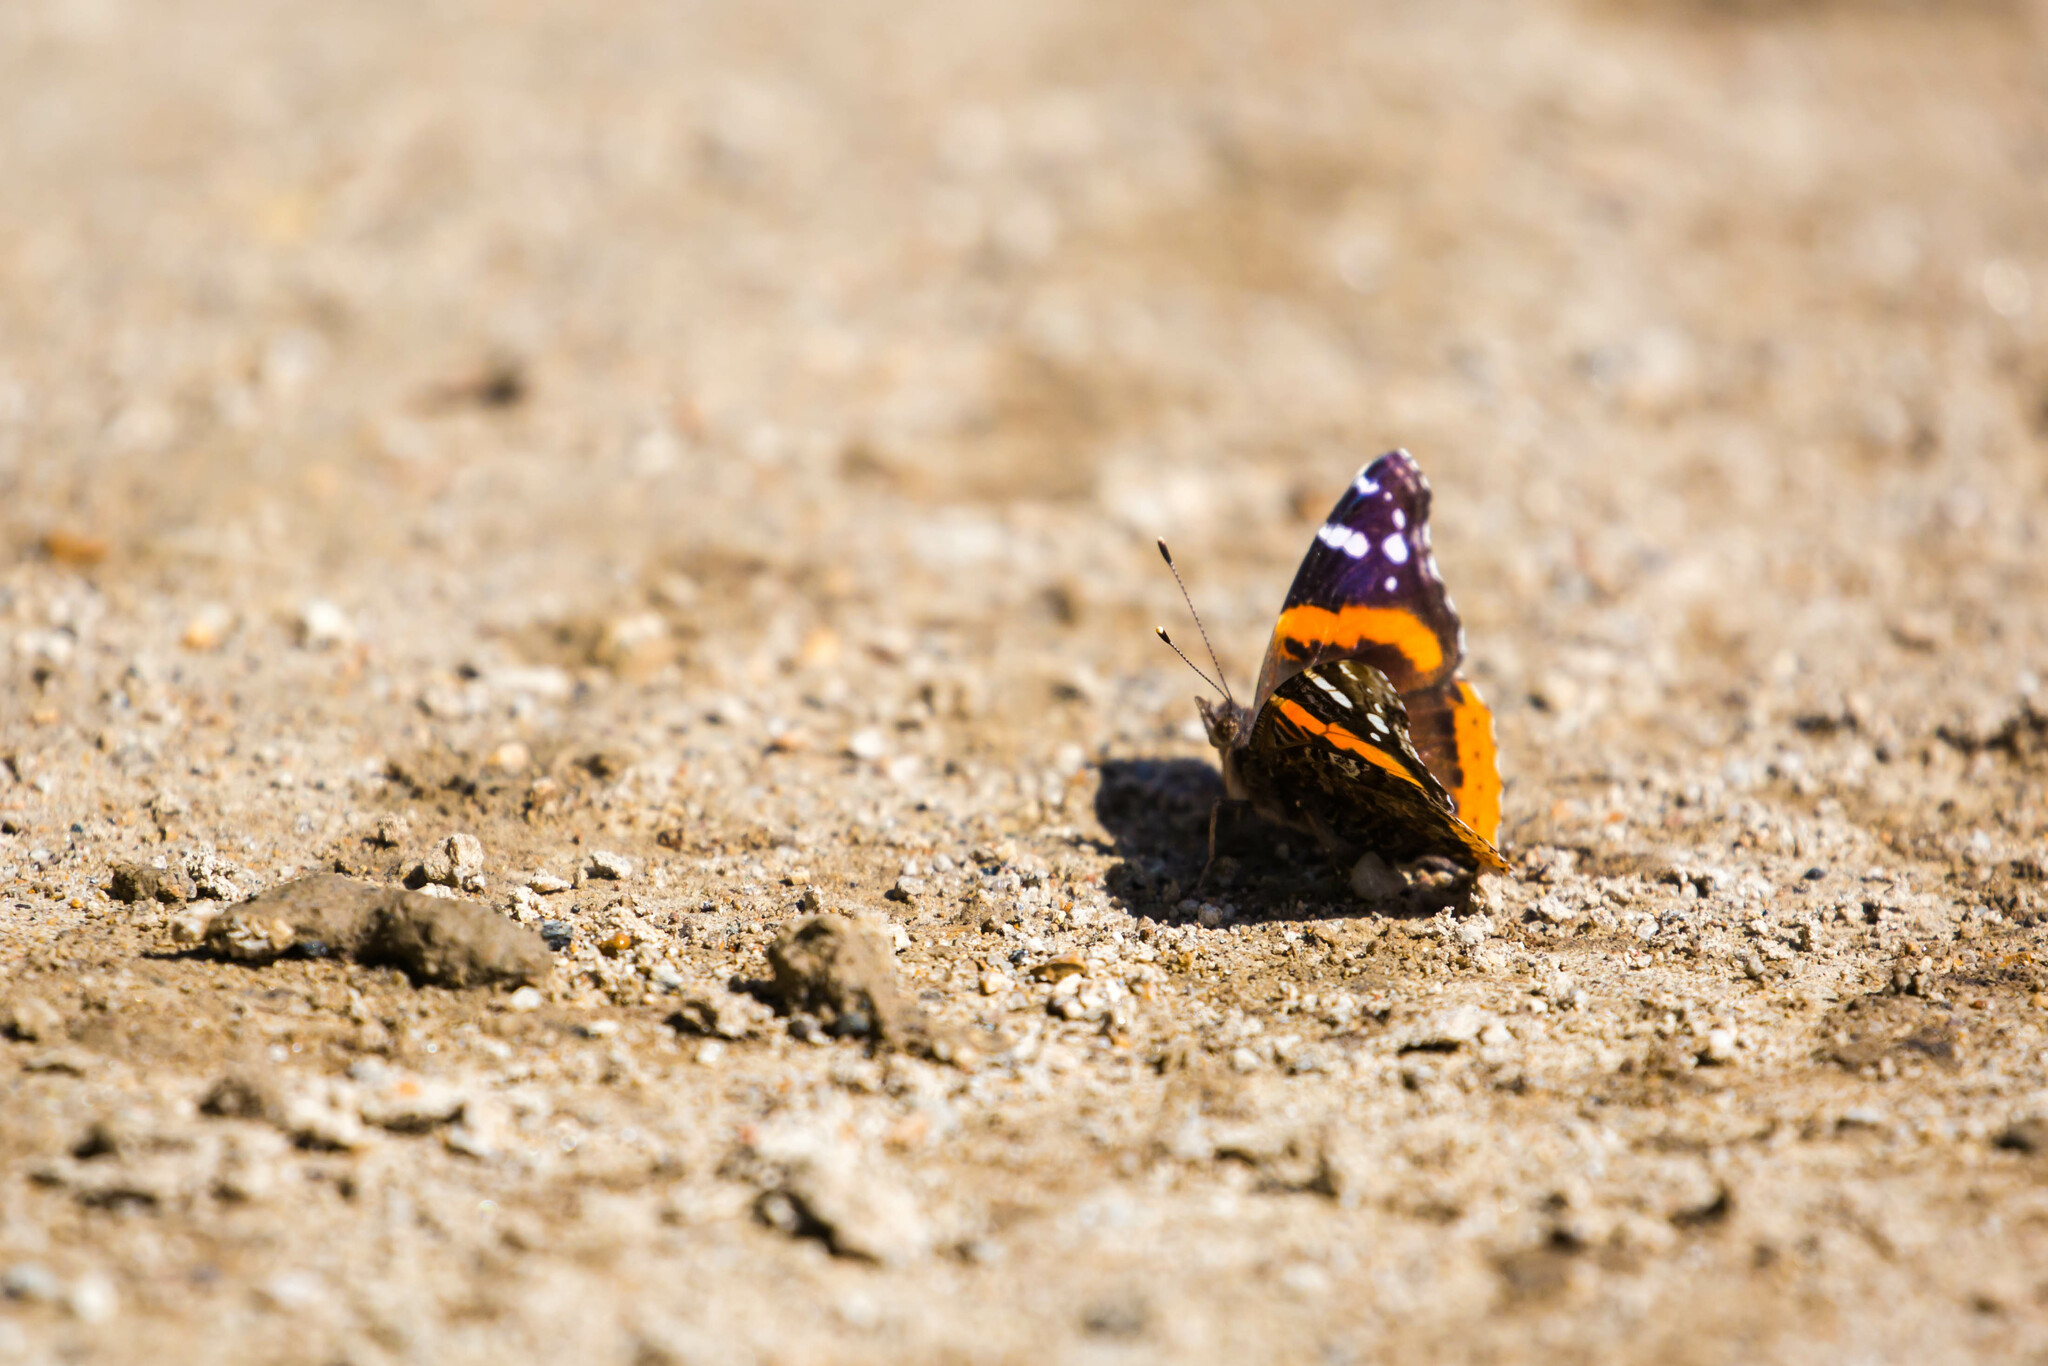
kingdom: Animalia
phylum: Arthropoda
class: Insecta
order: Lepidoptera
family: Nymphalidae
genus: Vanessa
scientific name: Vanessa atalanta
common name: Red admiral
